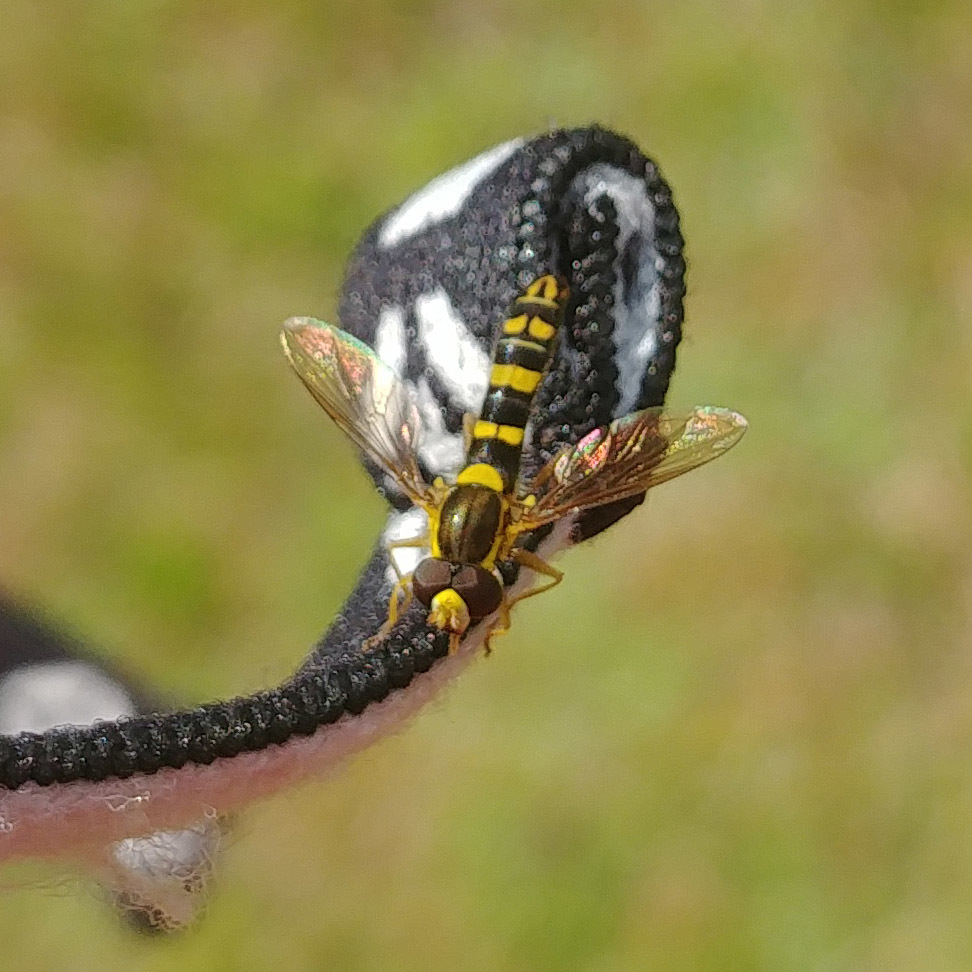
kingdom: Animalia
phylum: Arthropoda
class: Insecta
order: Diptera
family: Syrphidae
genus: Sphaerophoria
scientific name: Sphaerophoria scripta
